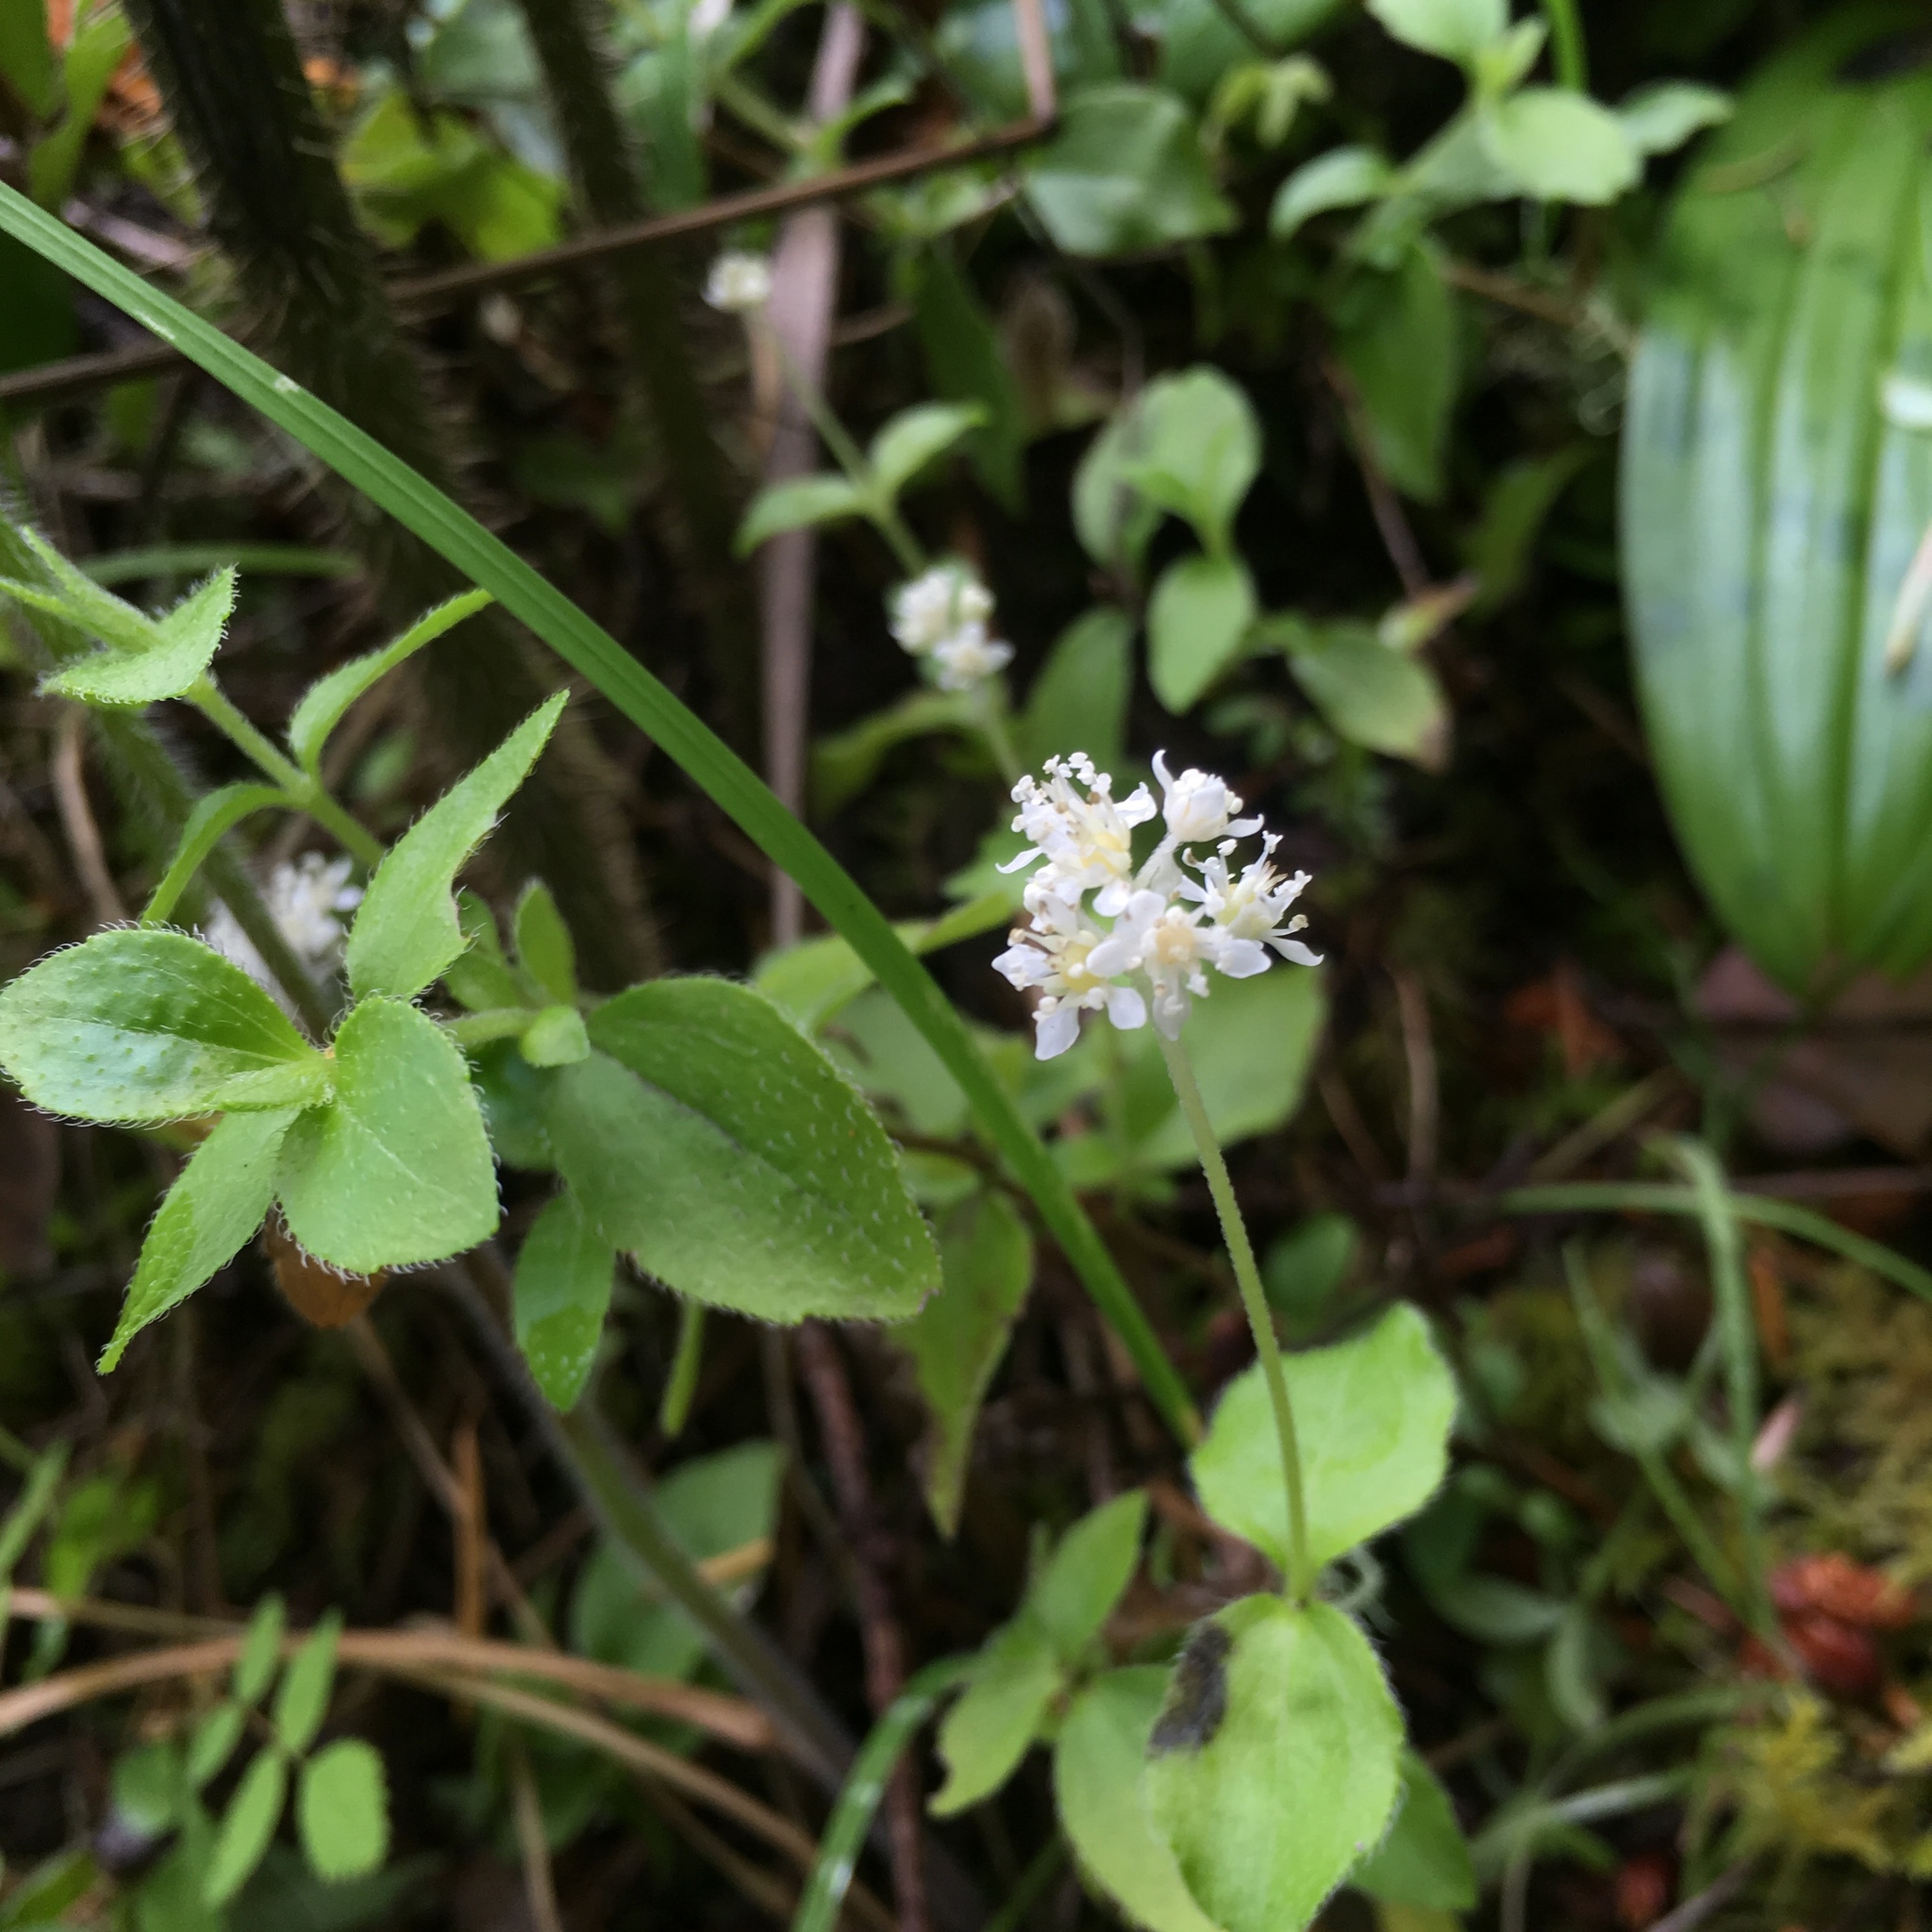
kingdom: Plantae
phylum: Tracheophyta
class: Magnoliopsida
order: Cornales
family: Hydrangeaceae
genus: Whipplea
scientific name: Whipplea modesta
